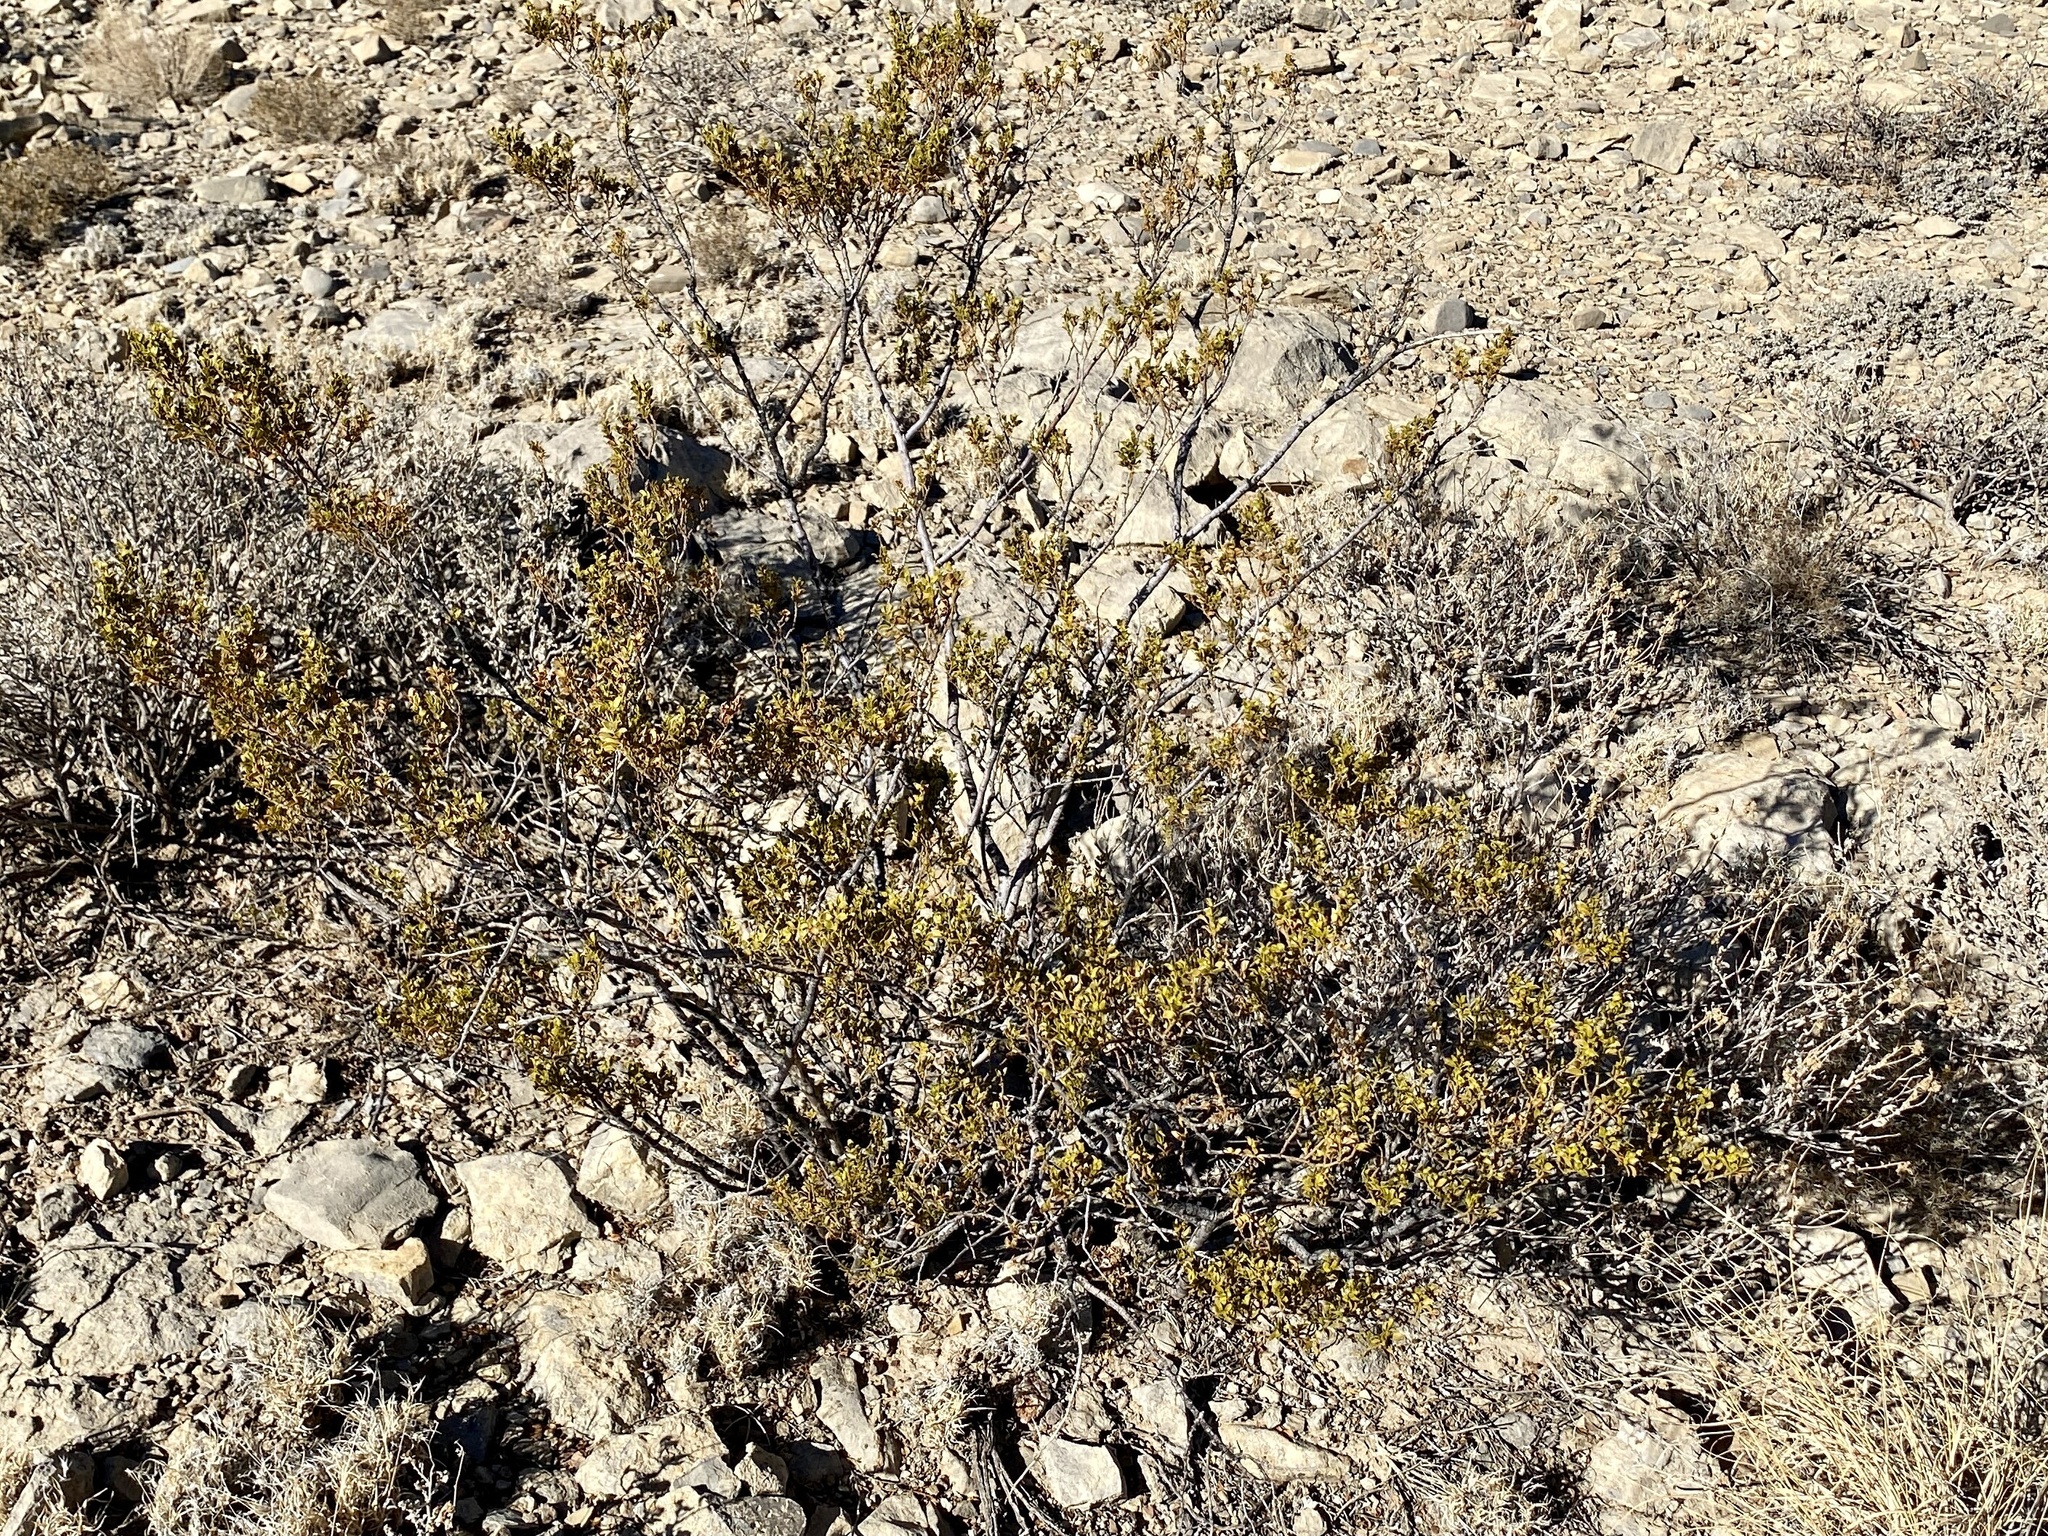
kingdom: Plantae
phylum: Tracheophyta
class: Magnoliopsida
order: Zygophyllales
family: Zygophyllaceae
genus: Larrea
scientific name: Larrea tridentata
